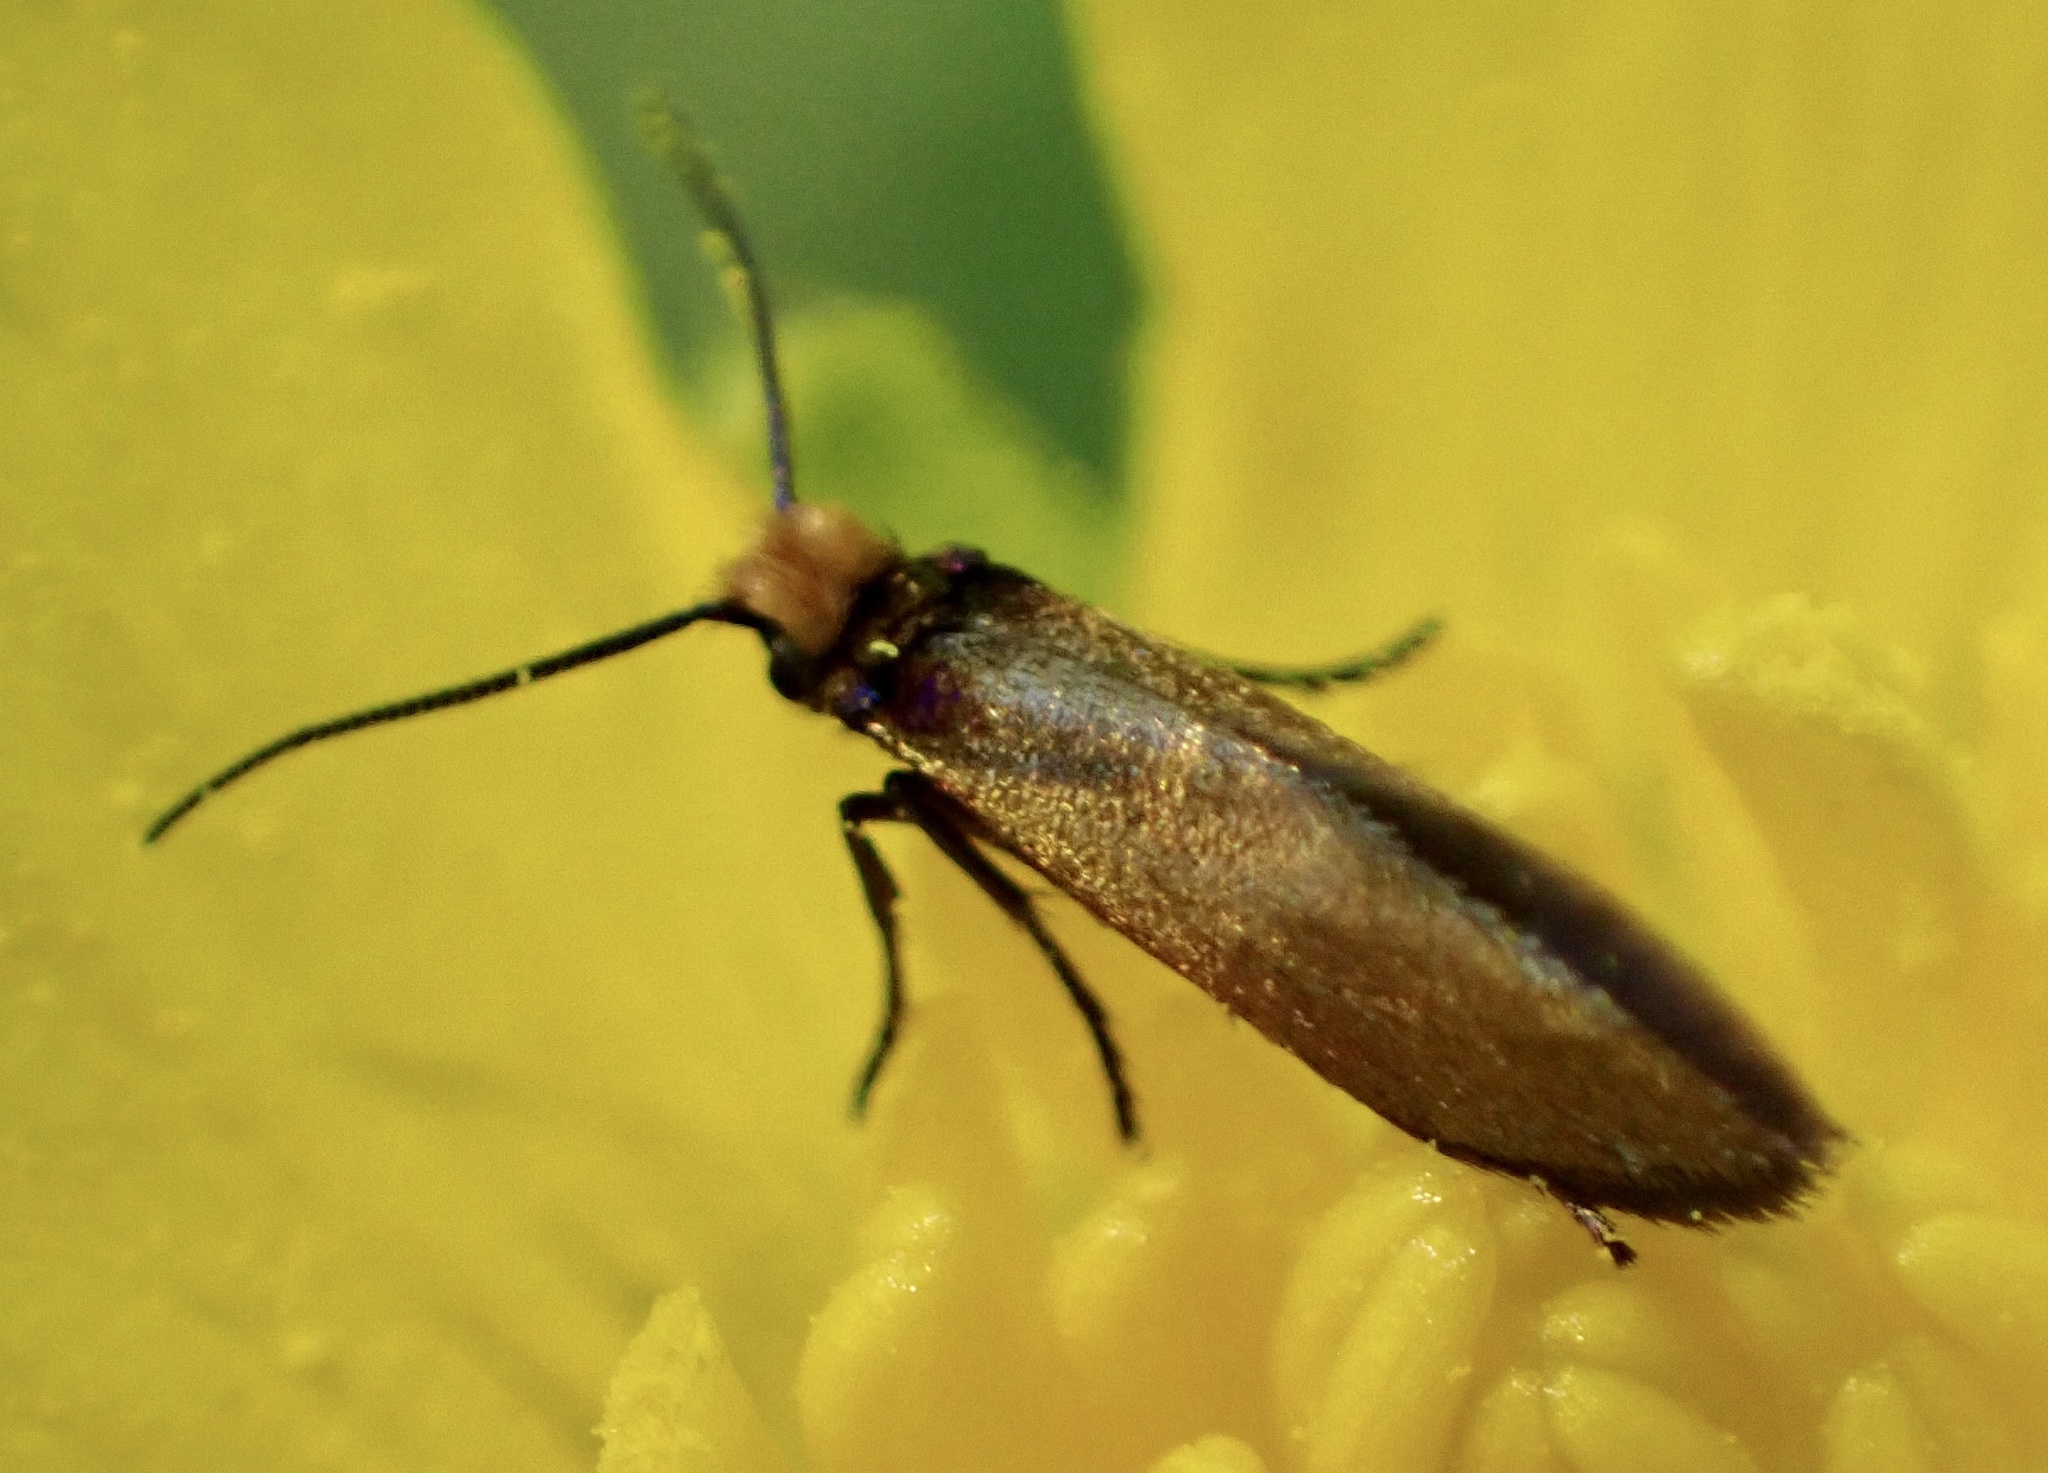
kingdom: Animalia
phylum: Arthropoda
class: Insecta
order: Lepidoptera
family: Micropterigidae
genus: Micropterix
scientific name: Micropterix calthella
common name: Plain gold
